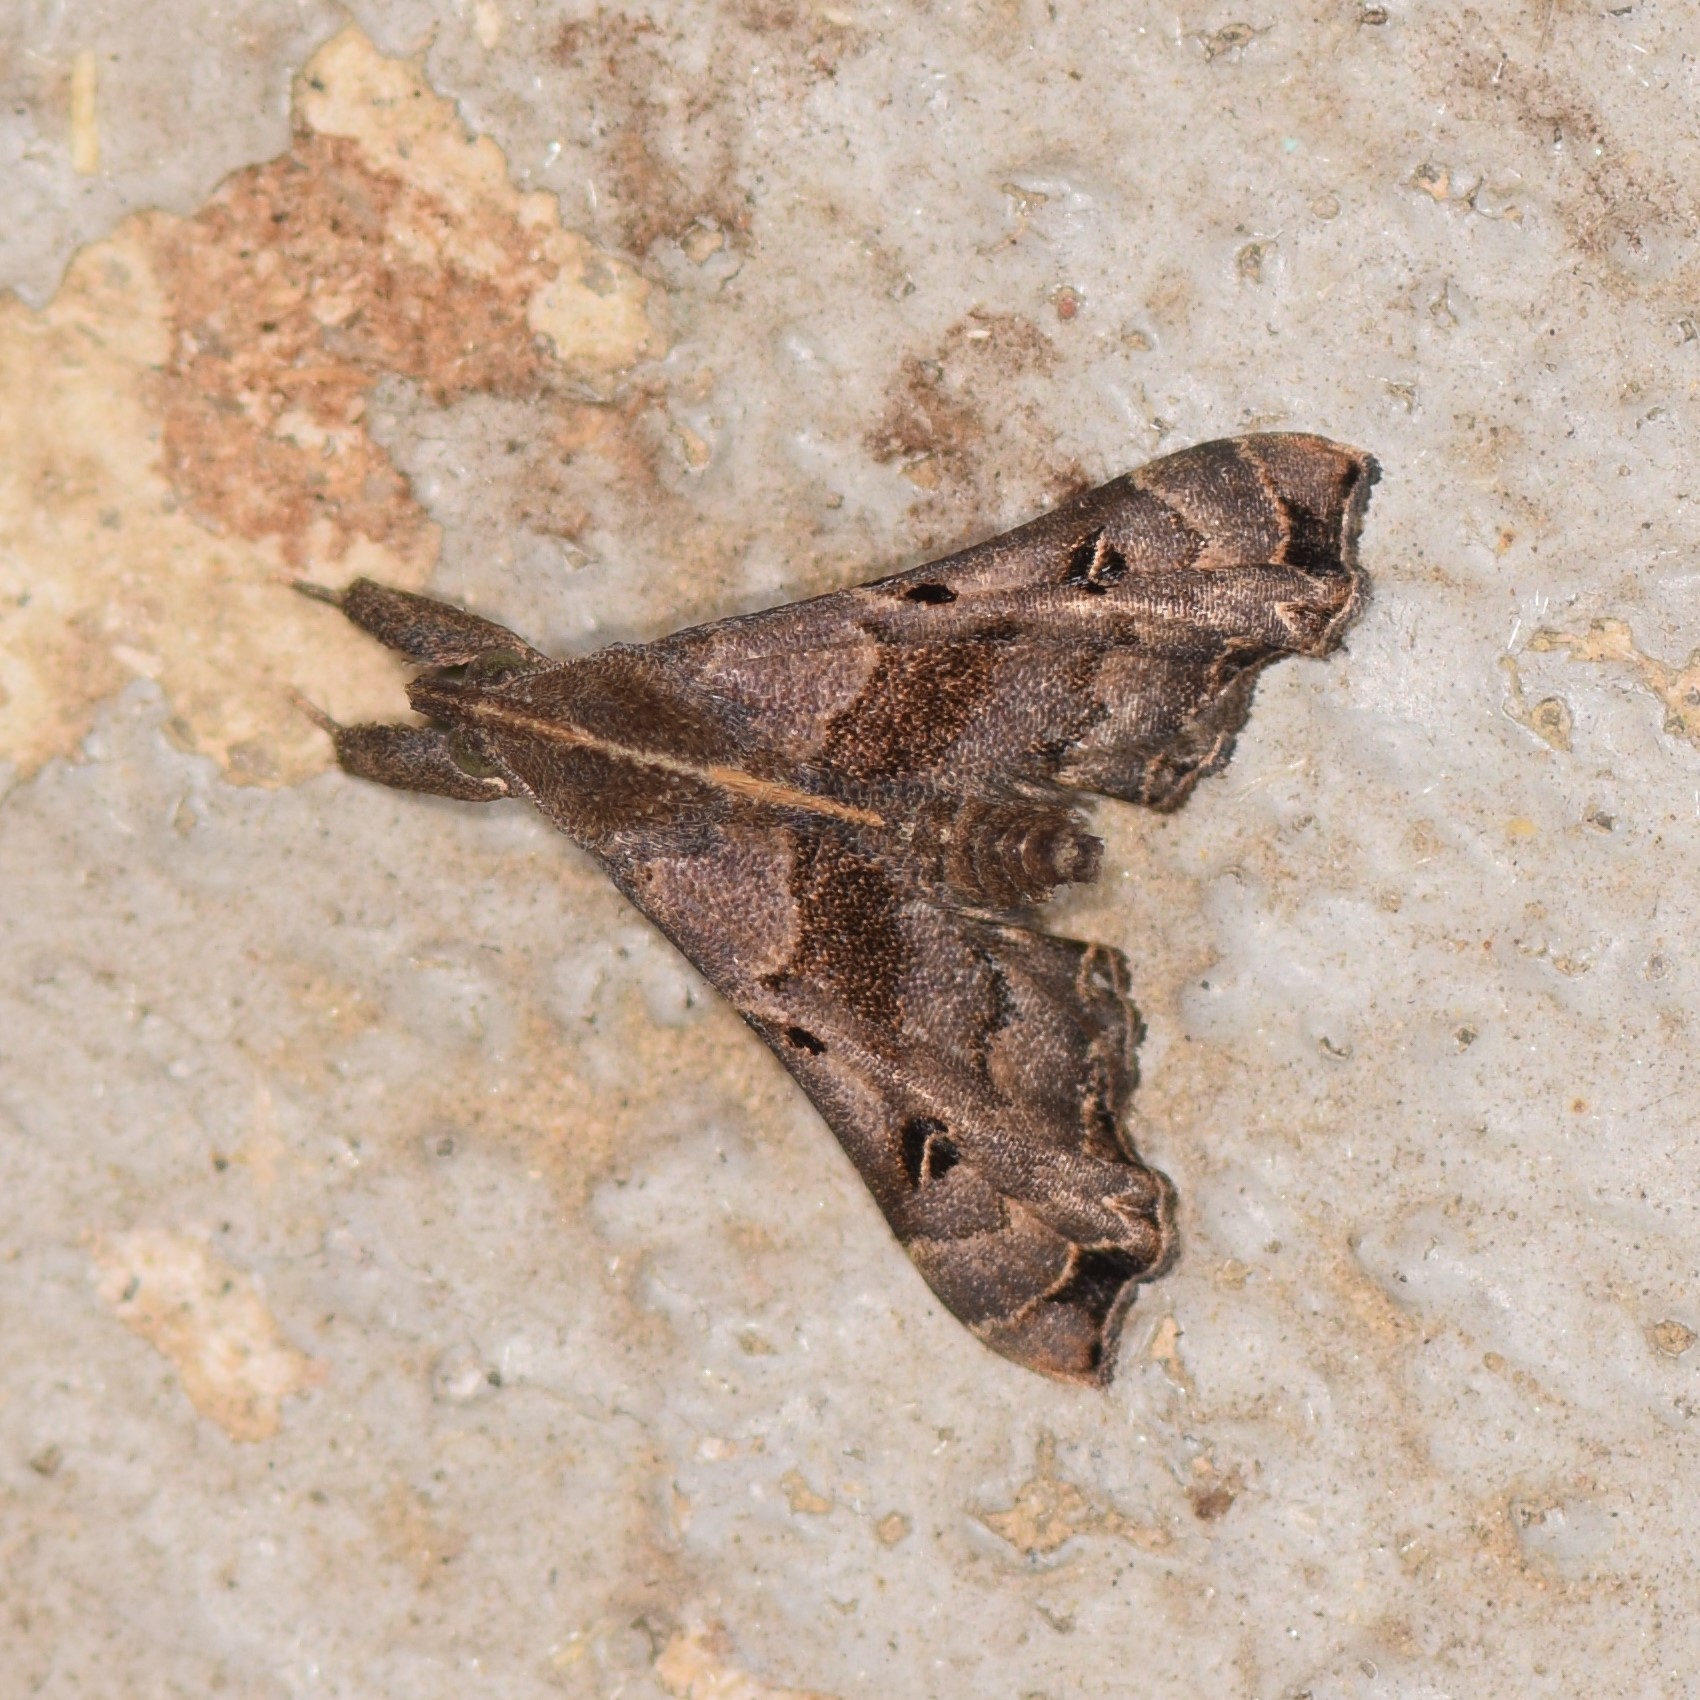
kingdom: Animalia
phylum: Arthropoda
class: Insecta
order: Lepidoptera
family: Erebidae
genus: Palthis
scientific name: Palthis asopialis
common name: Faint-spotted palthis moth
